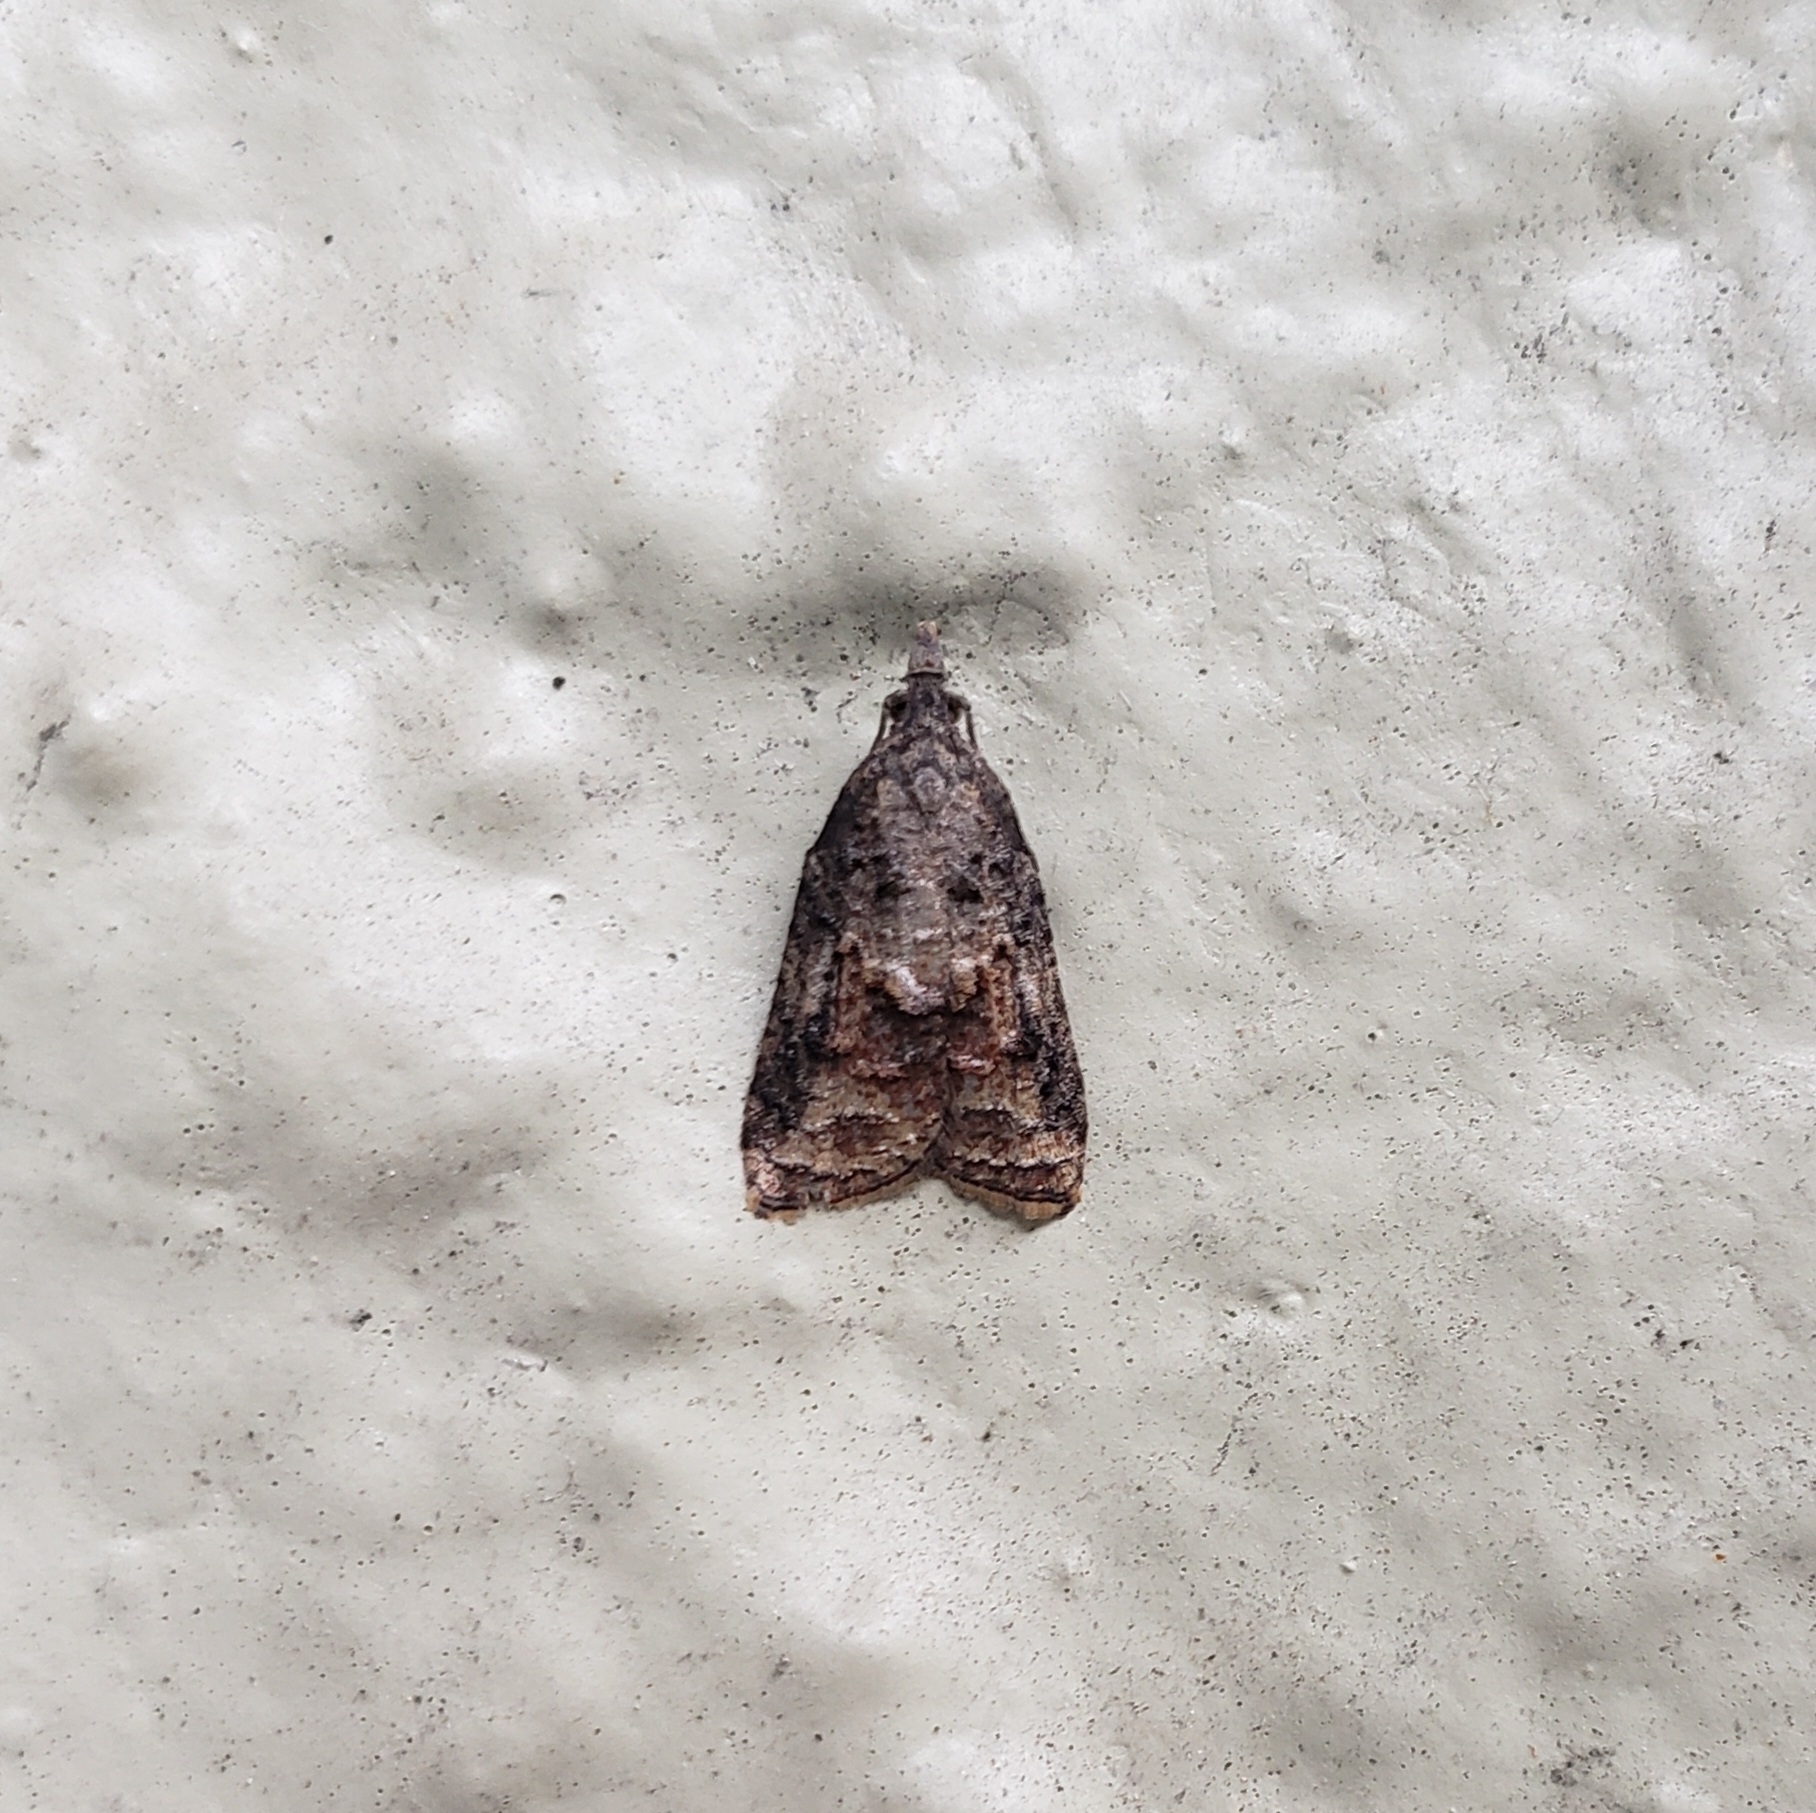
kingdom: Animalia
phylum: Arthropoda
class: Insecta
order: Lepidoptera
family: Tortricidae
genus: Platynota
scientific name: Platynota idaeusalis
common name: Tufted apple bud moth
